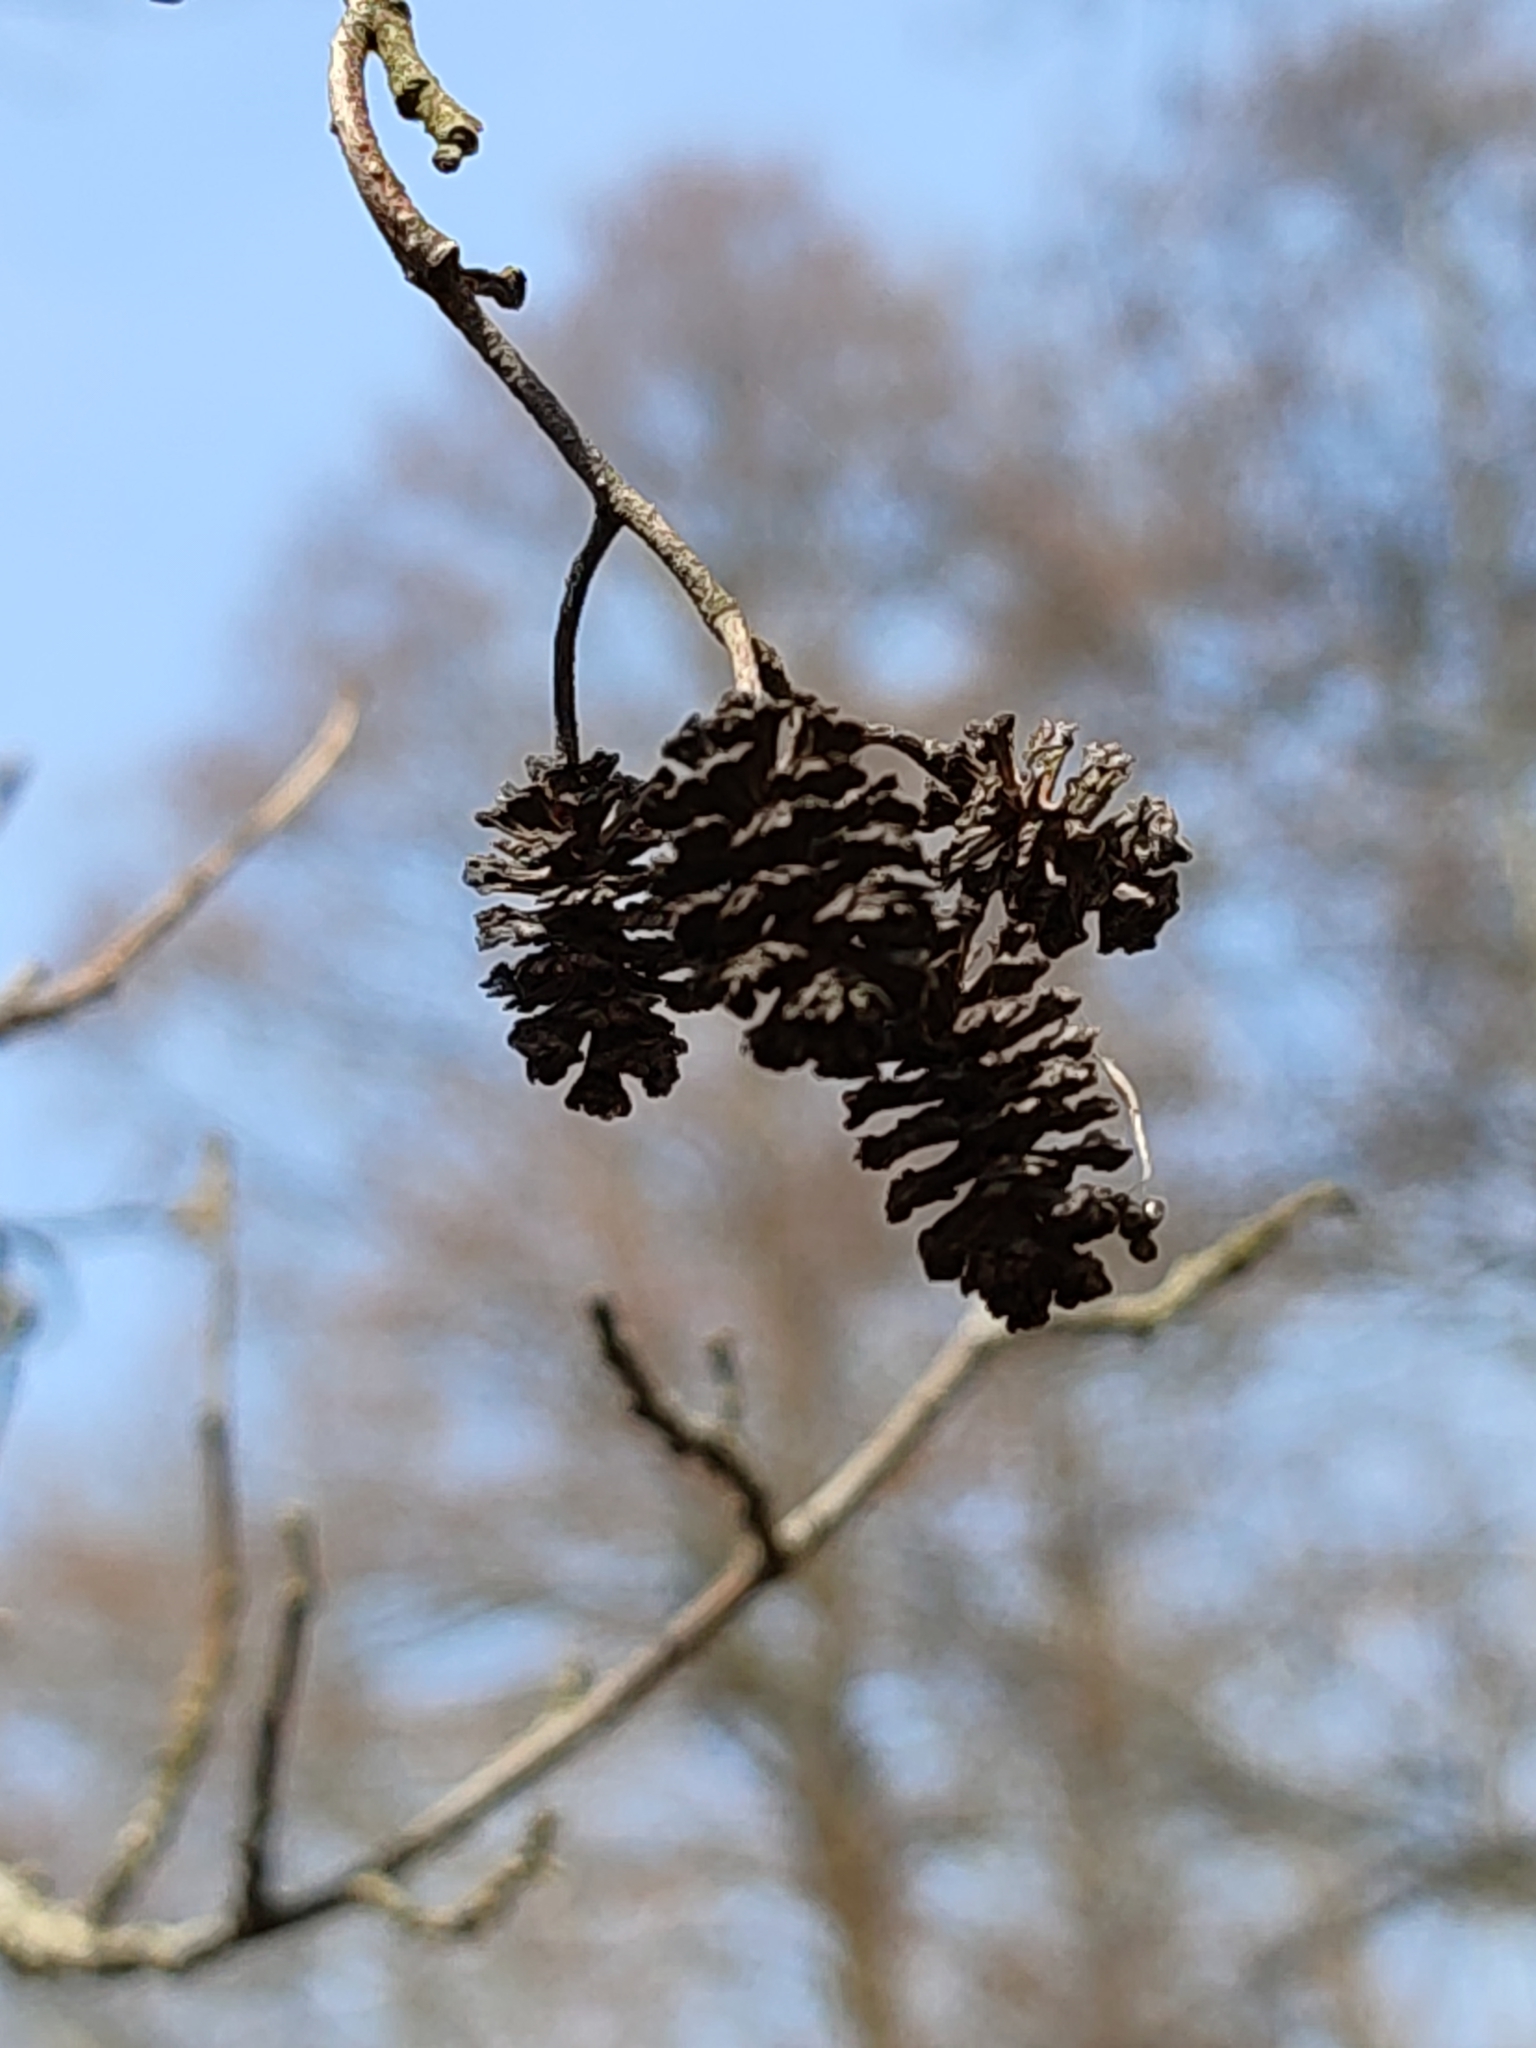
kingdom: Plantae
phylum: Tracheophyta
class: Magnoliopsida
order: Fagales
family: Betulaceae
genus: Alnus
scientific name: Alnus glutinosa
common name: Black alder
